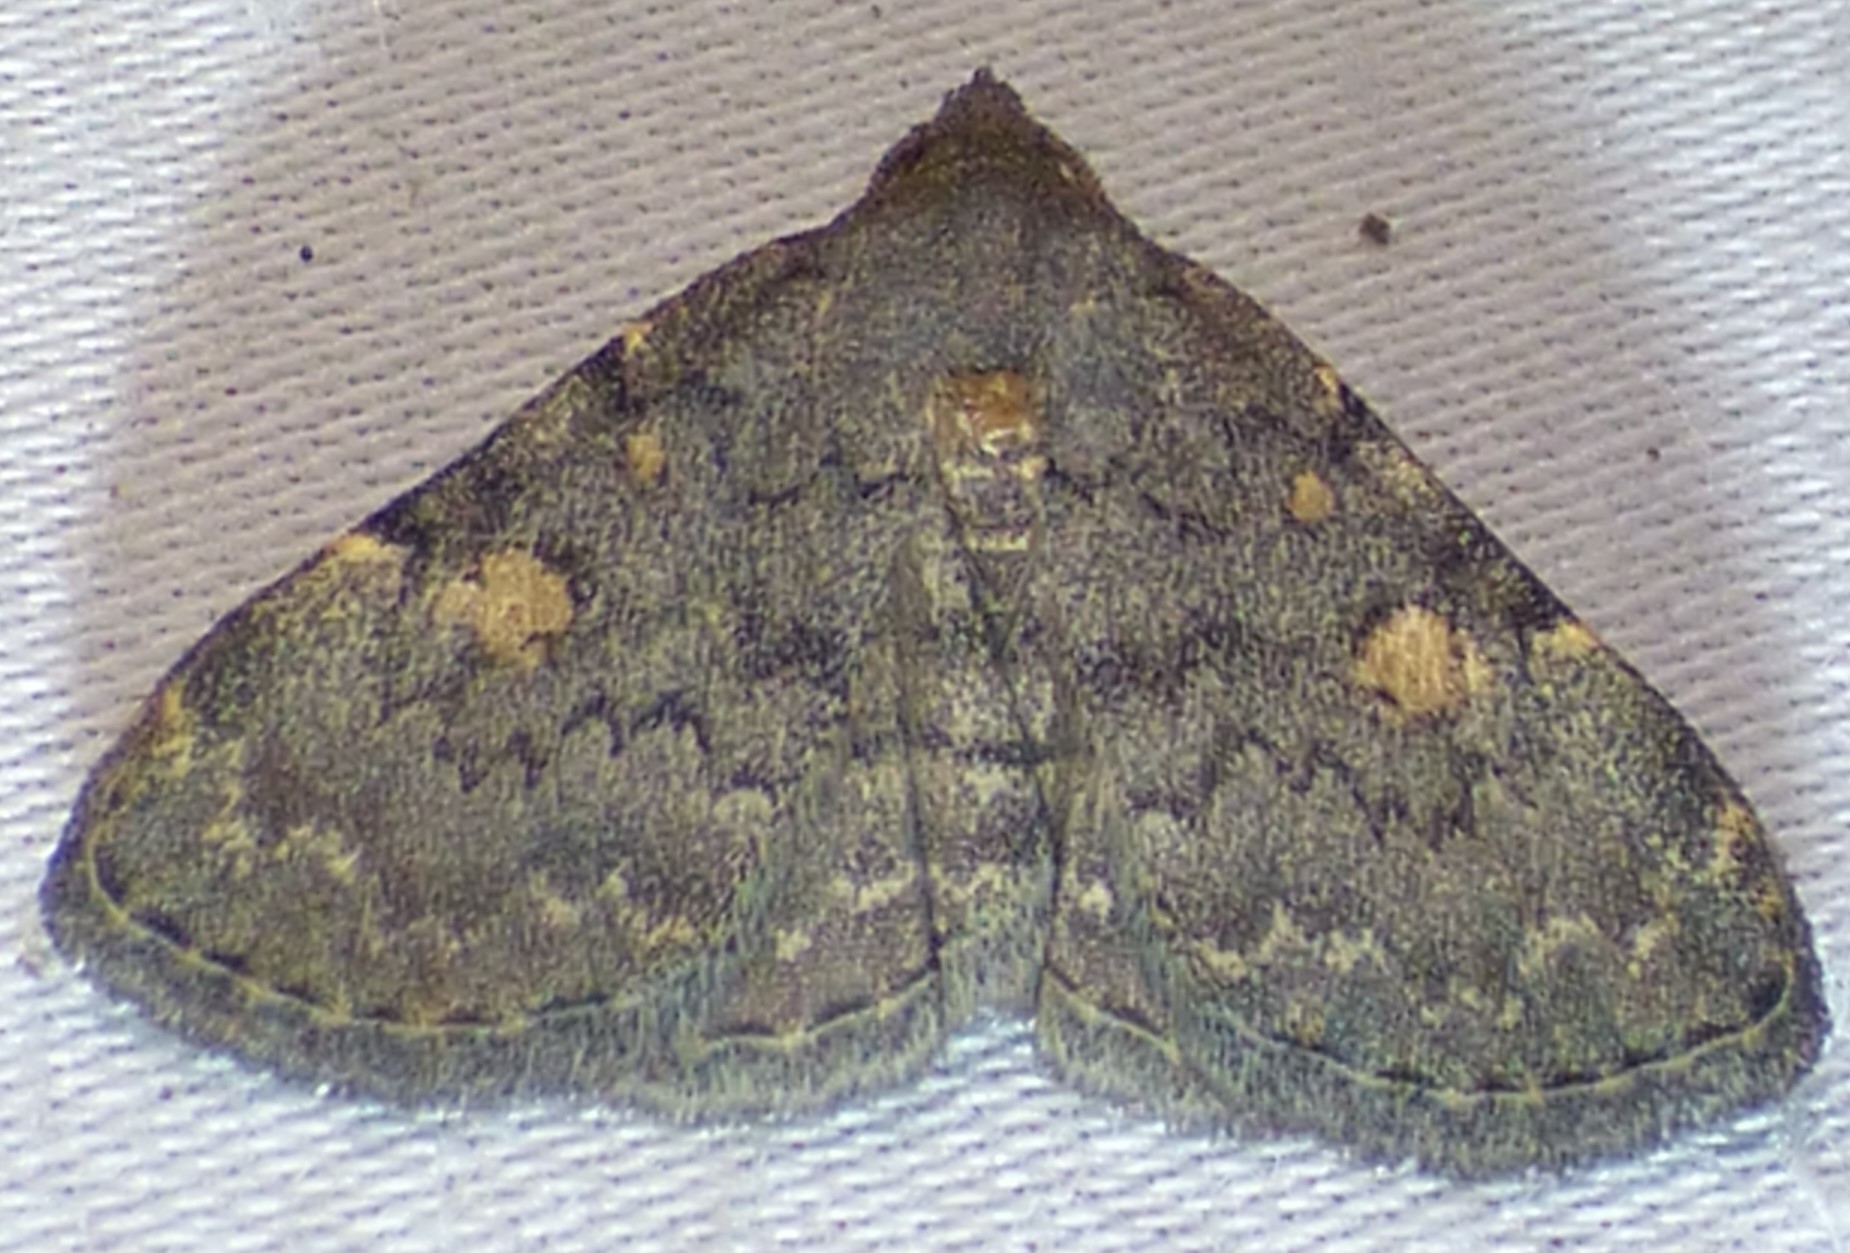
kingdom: Animalia
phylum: Arthropoda
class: Insecta
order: Lepidoptera
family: Erebidae
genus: Idia
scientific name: Idia aemula
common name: Common idia moth
